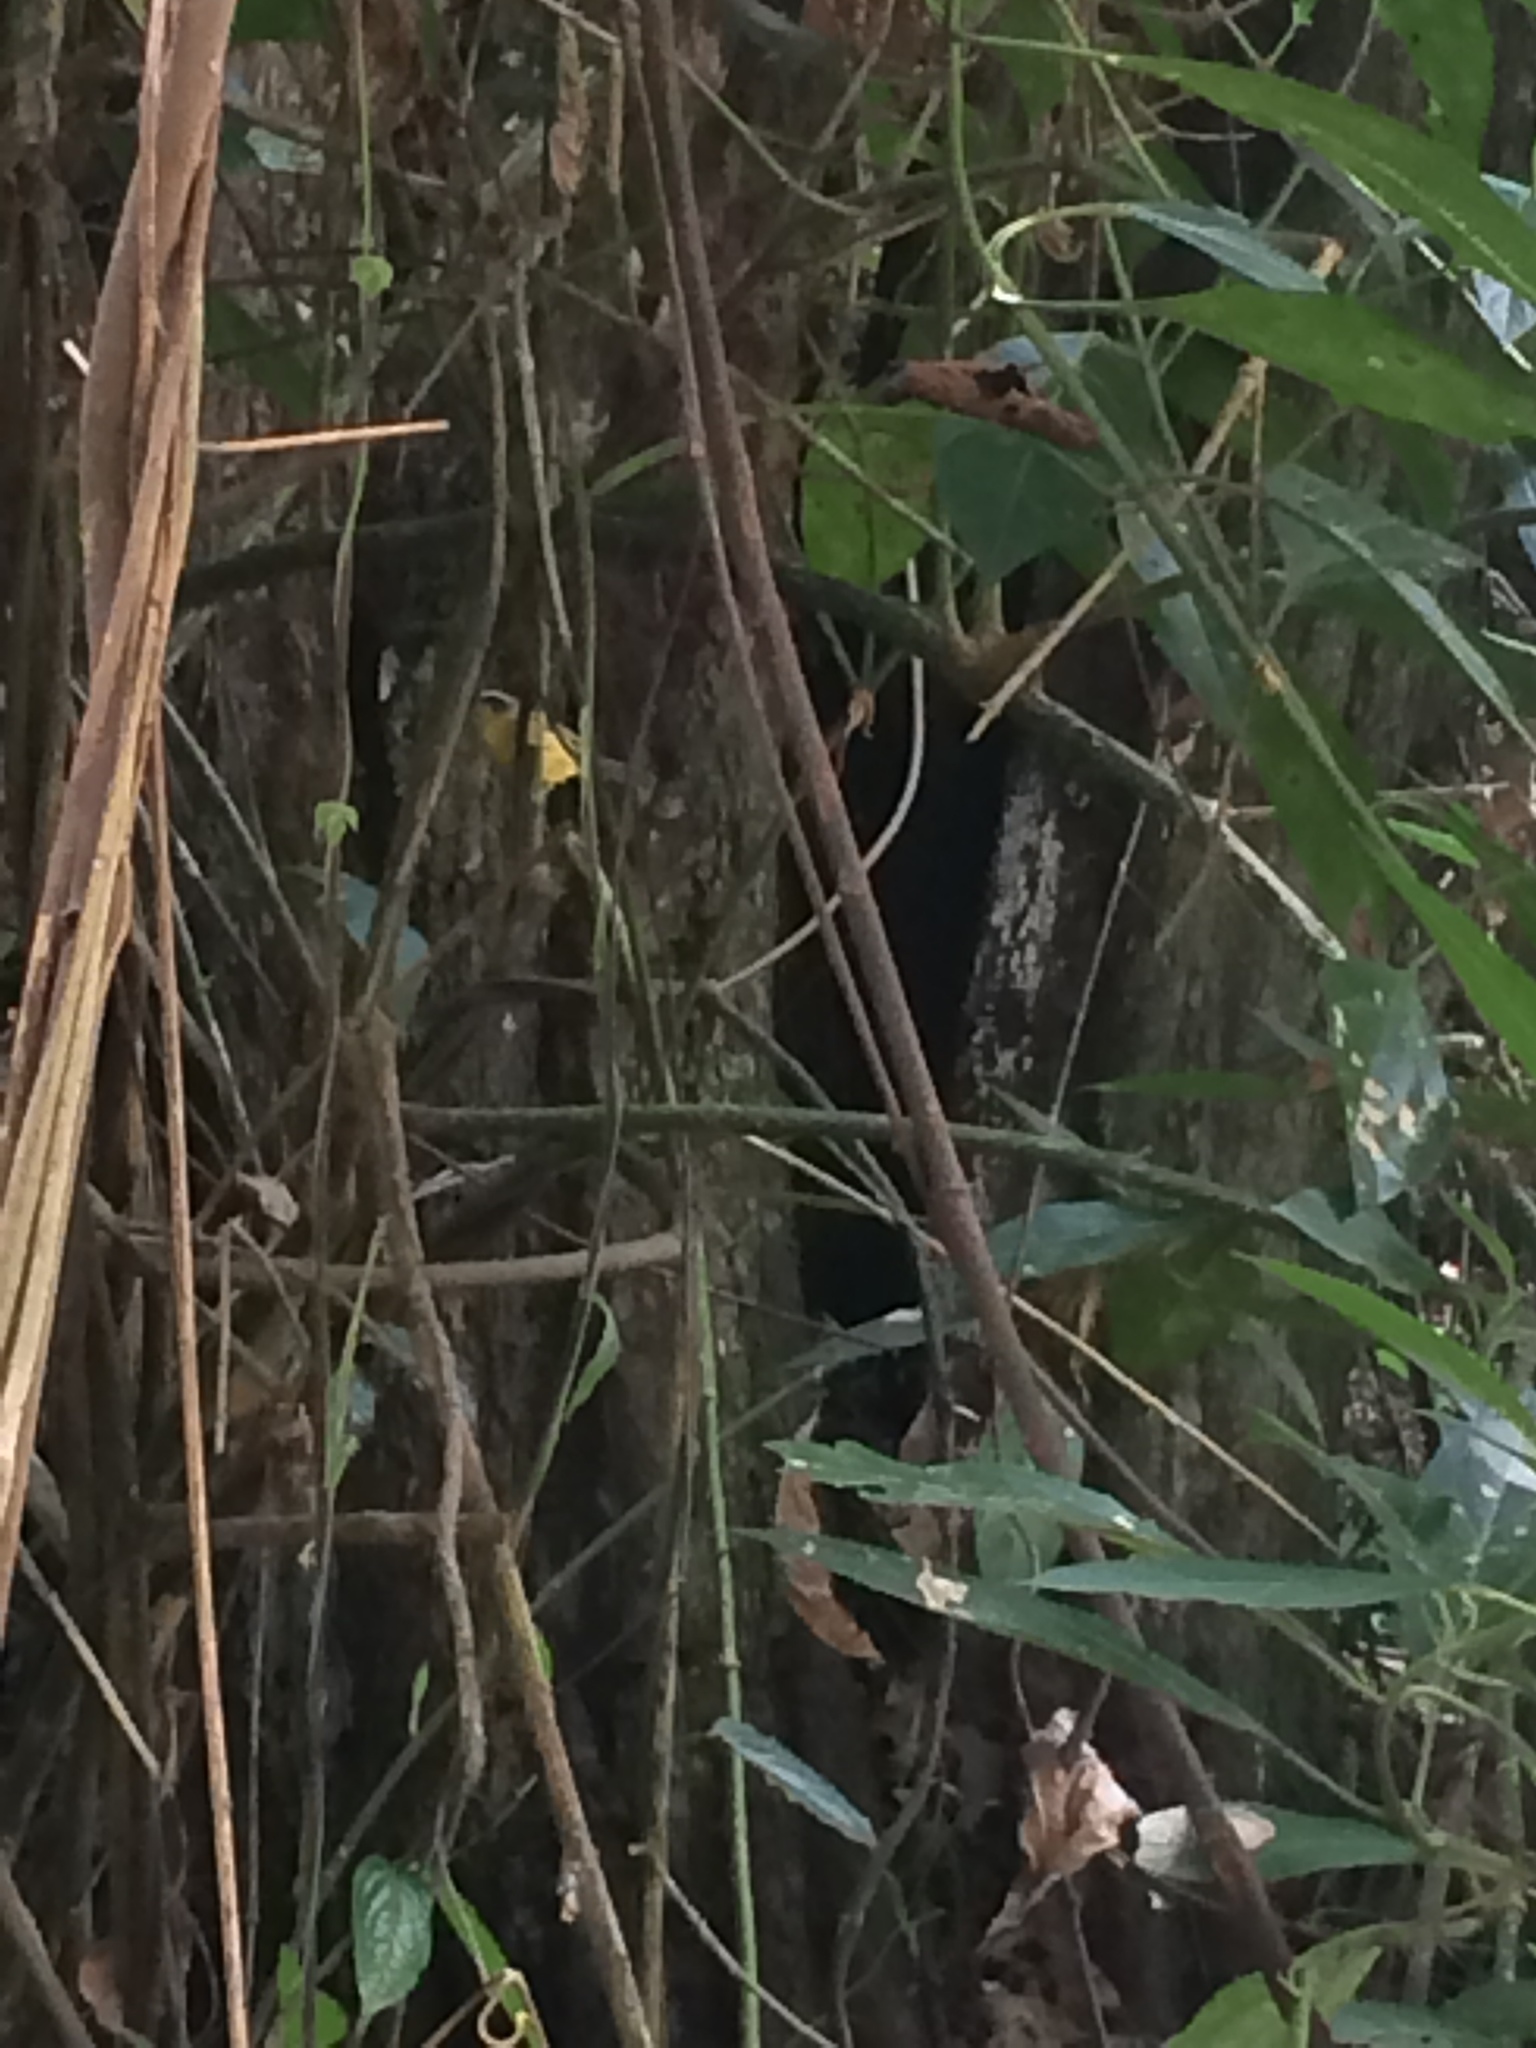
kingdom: Animalia
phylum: Chordata
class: Aves
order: Passeriformes
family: Parulidae
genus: Basileuterus
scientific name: Basileuterus rufifrons
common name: Rufous-capped warbler
